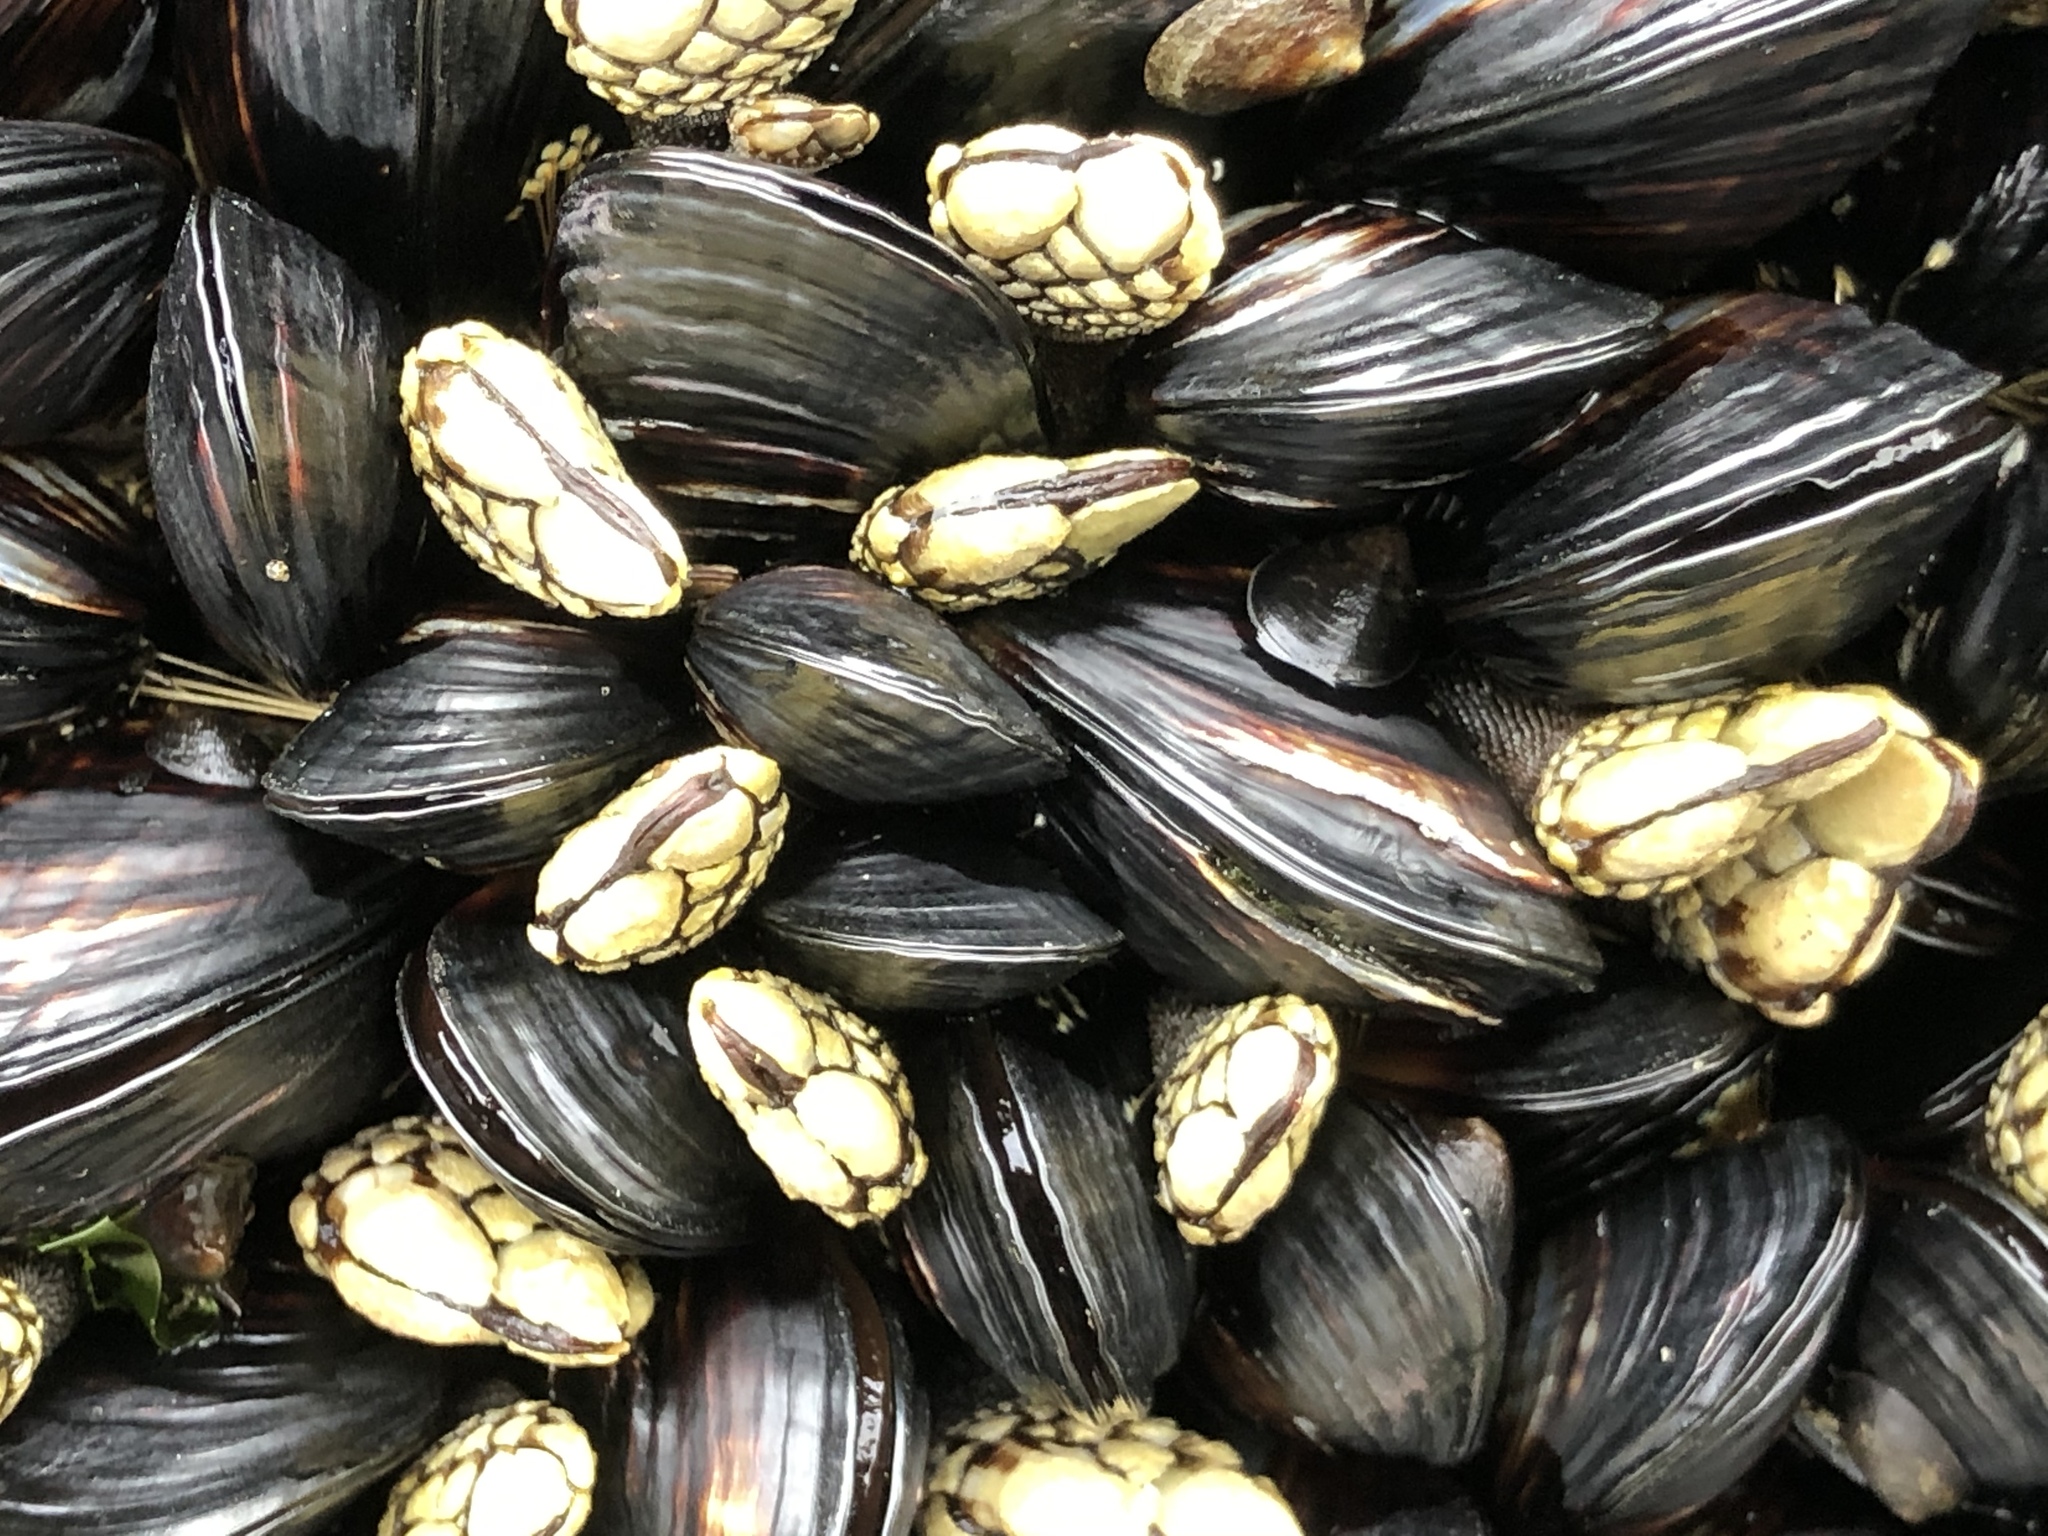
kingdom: Animalia
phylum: Arthropoda
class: Maxillopoda
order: Pedunculata
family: Pollicipedidae
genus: Pollicipes
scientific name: Pollicipes polymerus
